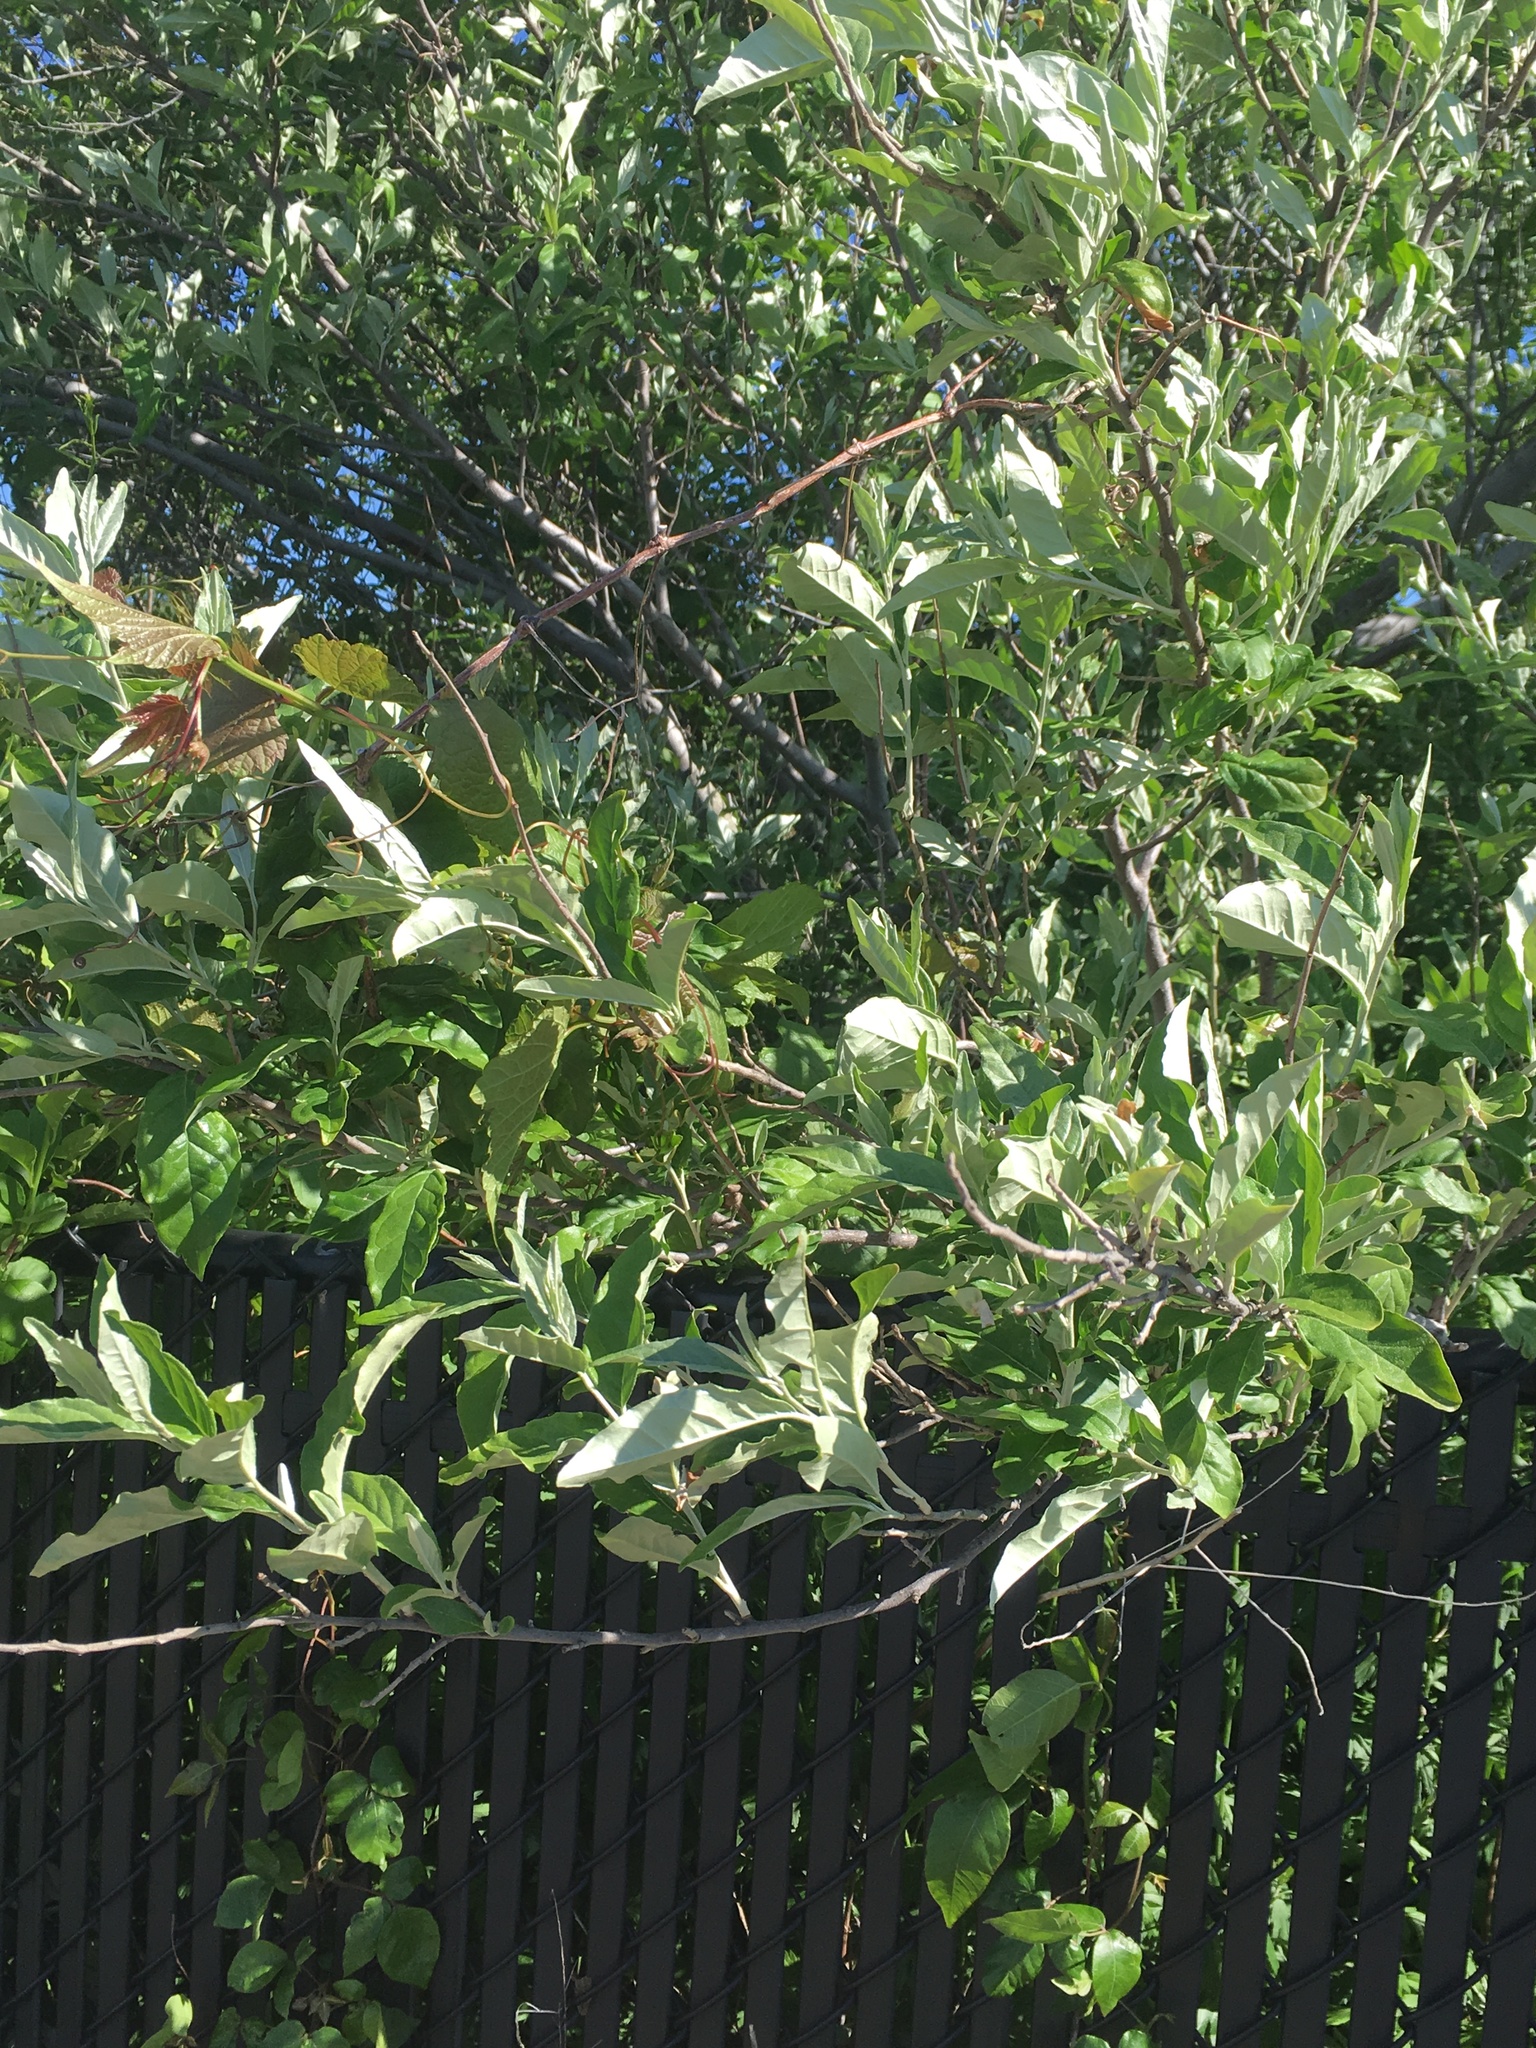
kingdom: Plantae
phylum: Tracheophyta
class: Magnoliopsida
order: Rosales
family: Elaeagnaceae
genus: Elaeagnus
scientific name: Elaeagnus umbellata
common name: Autumn olive
